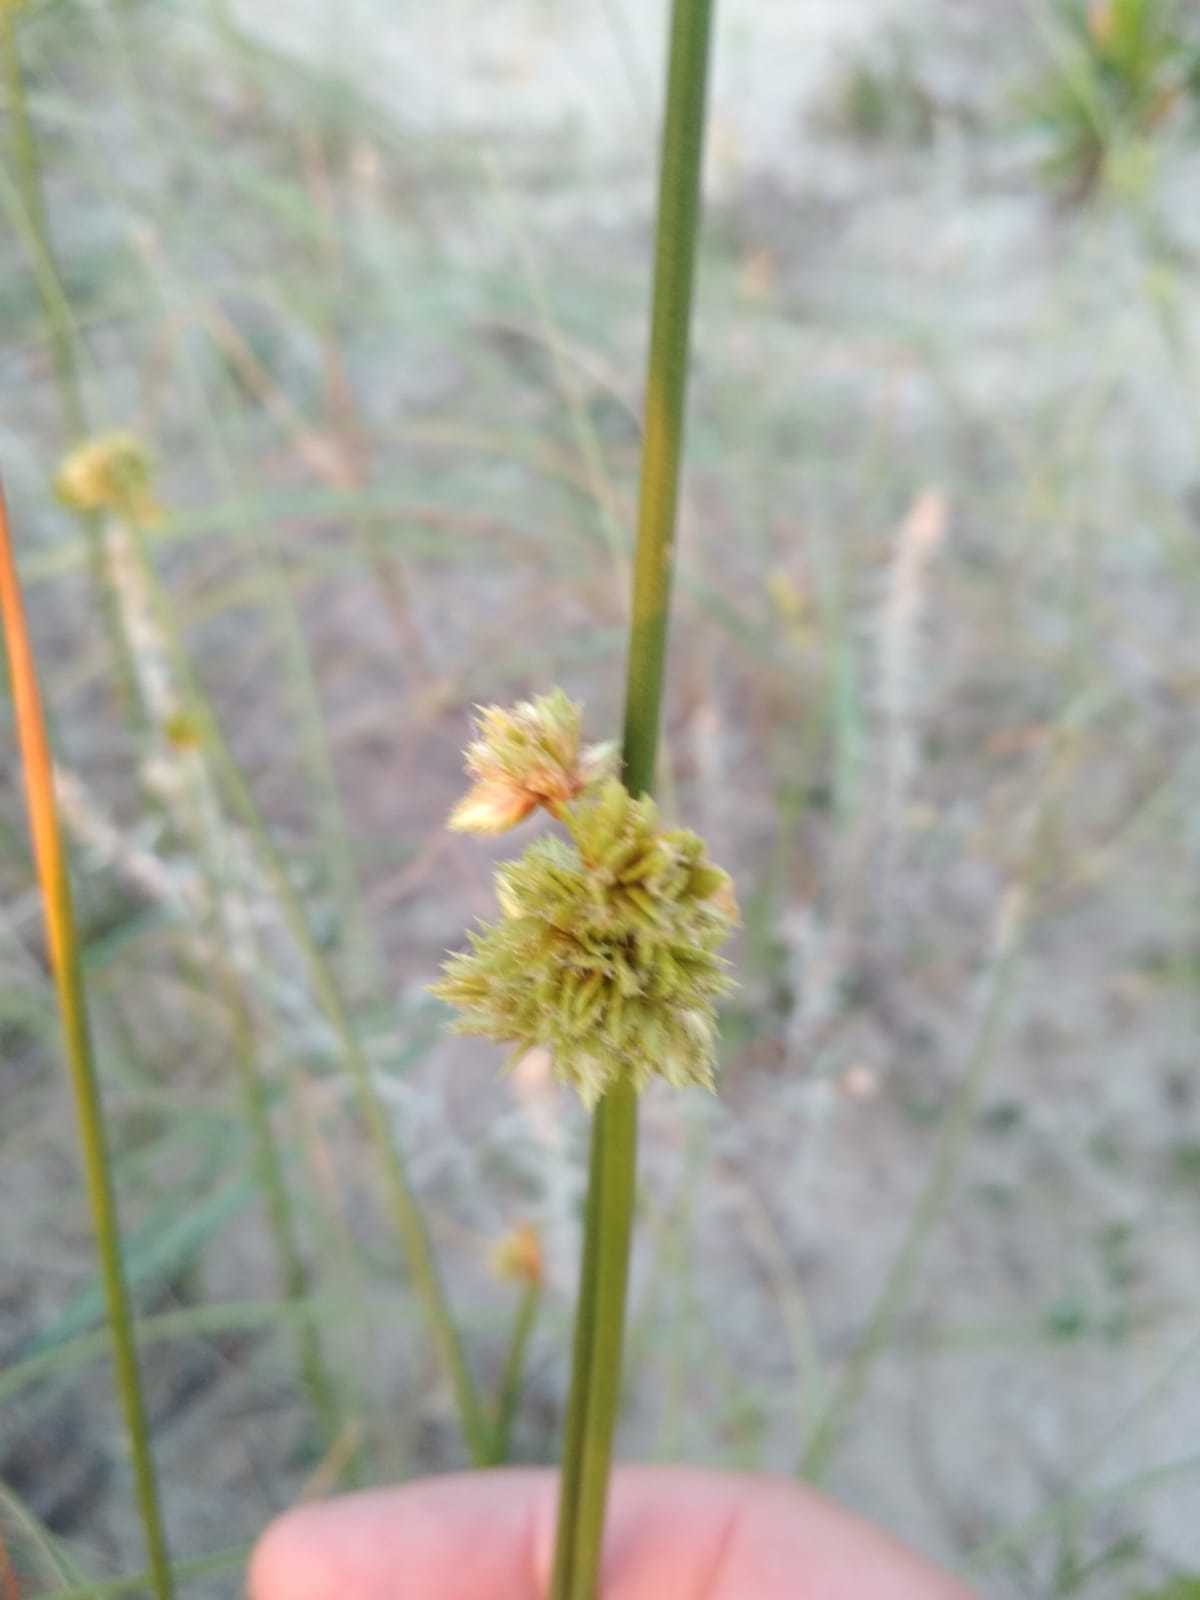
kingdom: Plantae
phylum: Tracheophyta
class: Liliopsida
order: Poales
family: Cyperaceae
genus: Cyperus
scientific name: Cyperus trigynus
